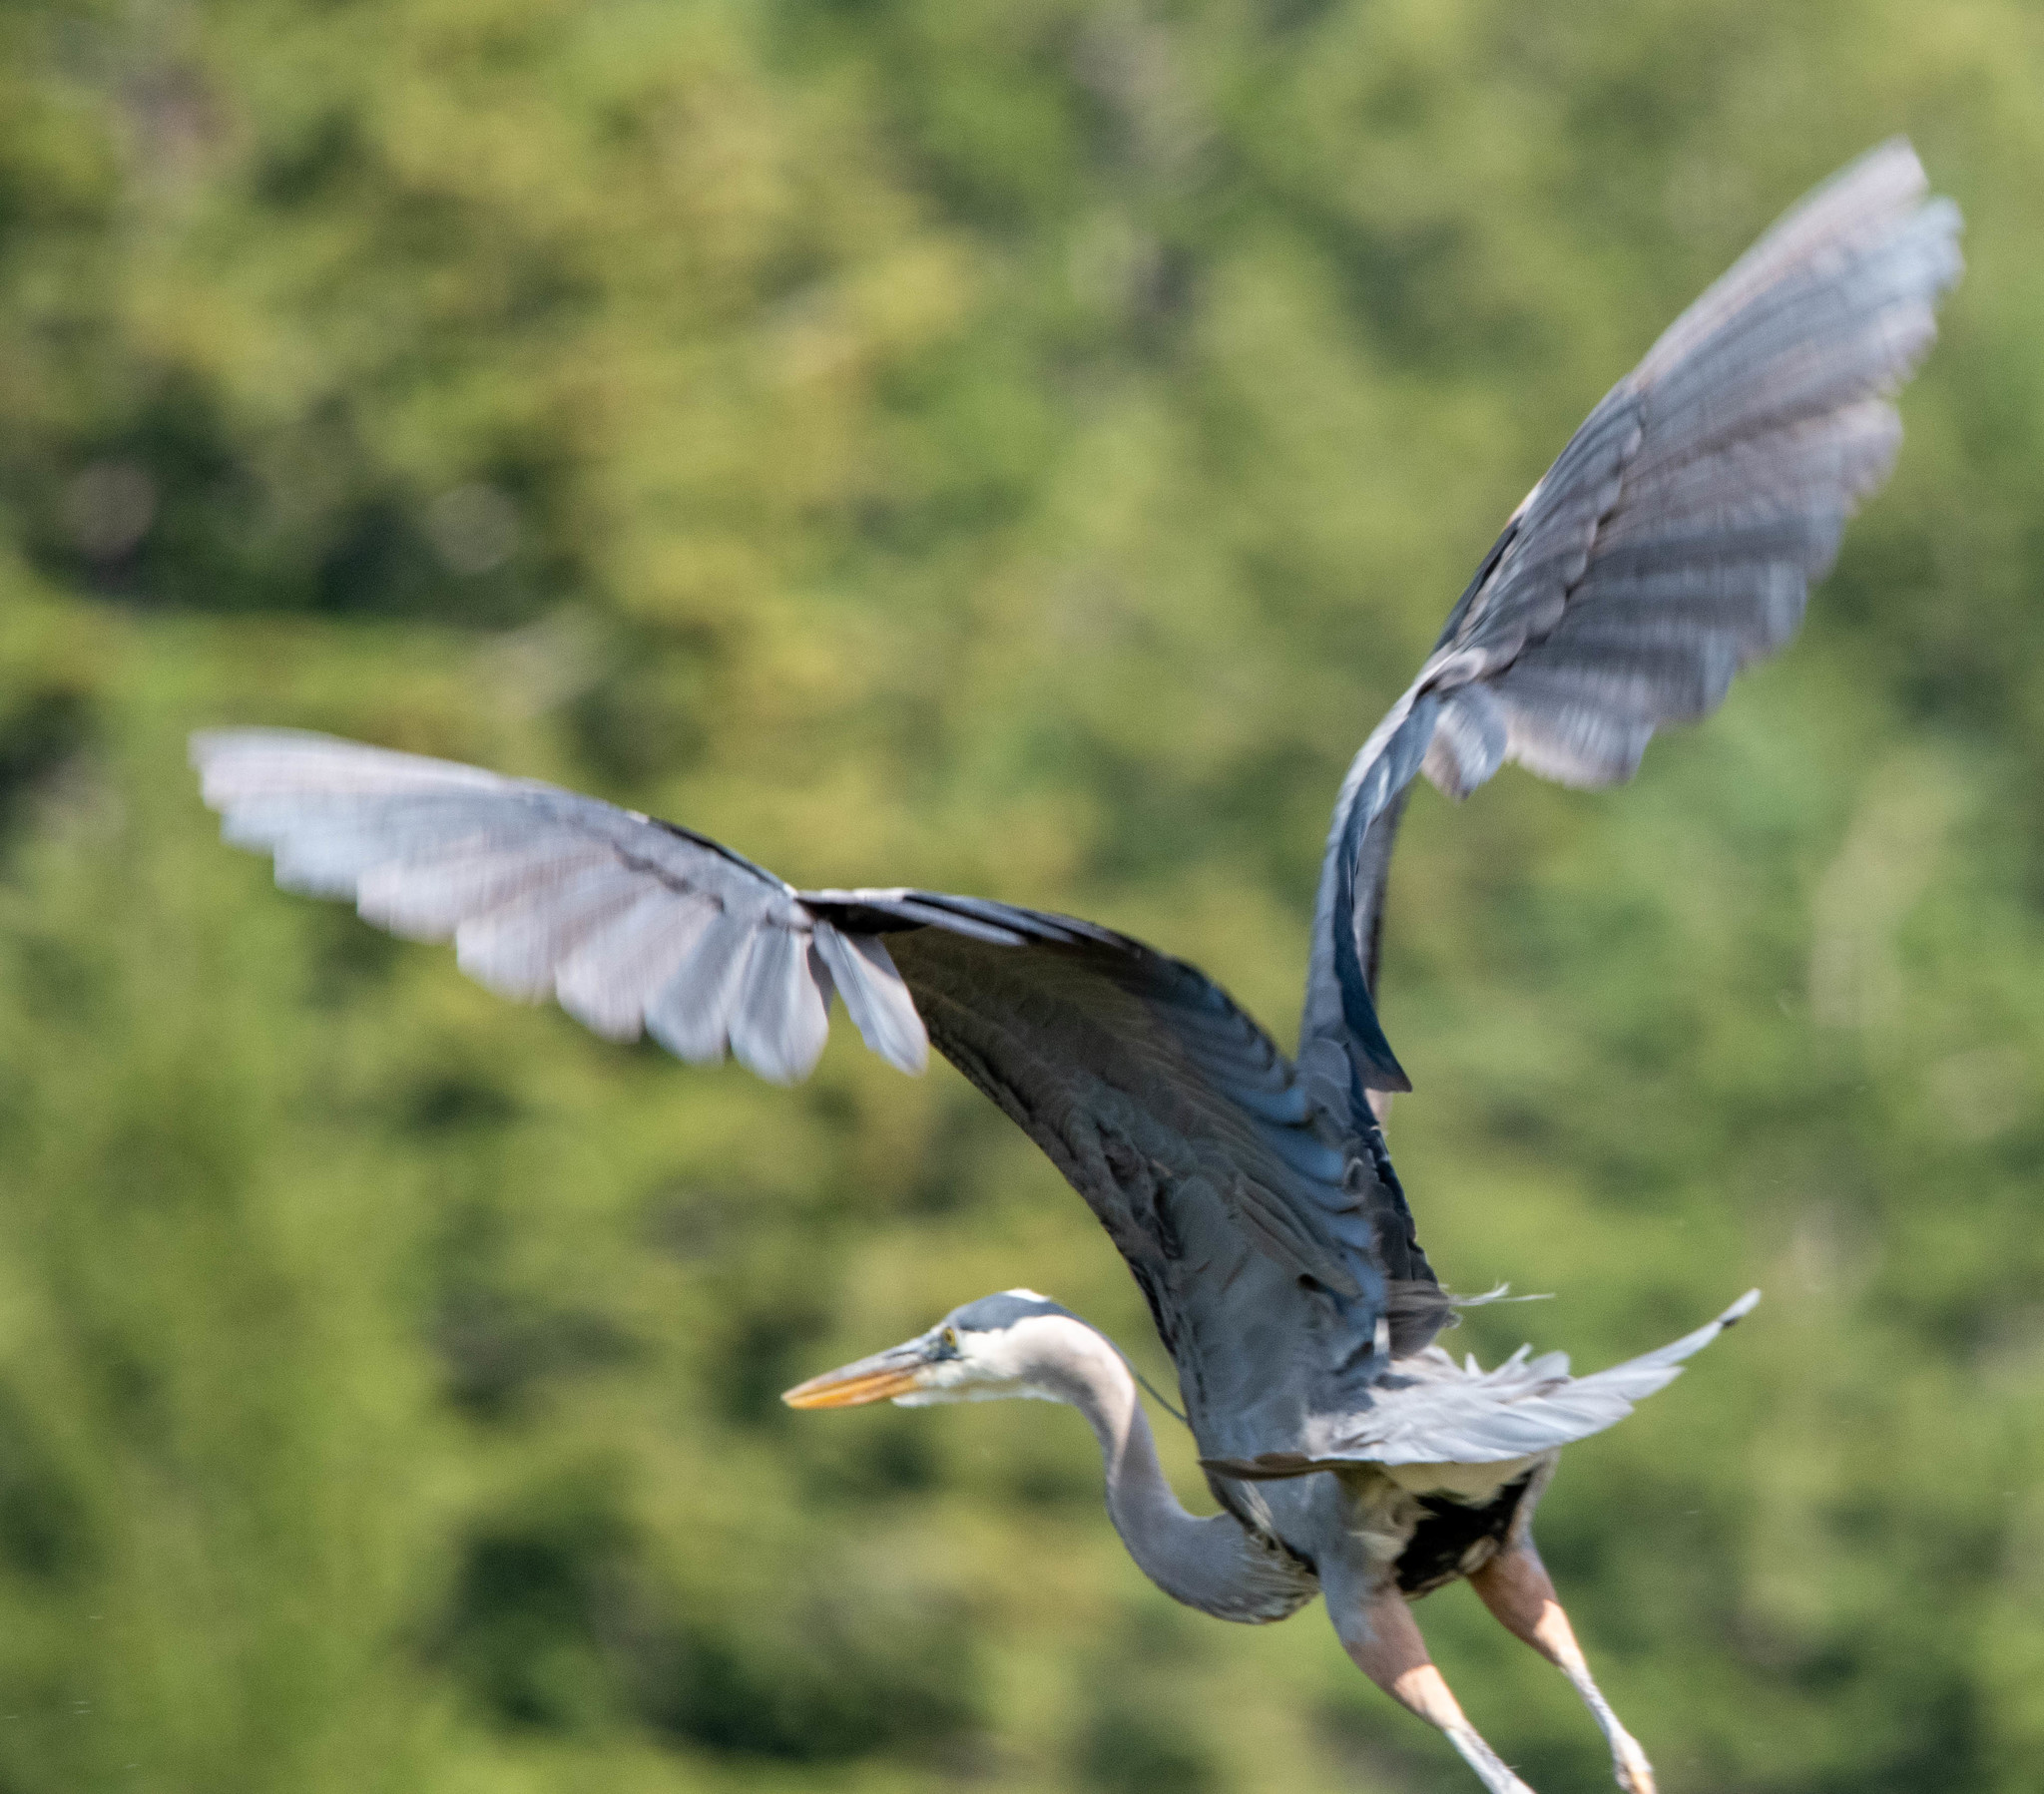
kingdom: Animalia
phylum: Chordata
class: Aves
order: Pelecaniformes
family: Ardeidae
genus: Ardea
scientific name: Ardea herodias
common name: Great blue heron
